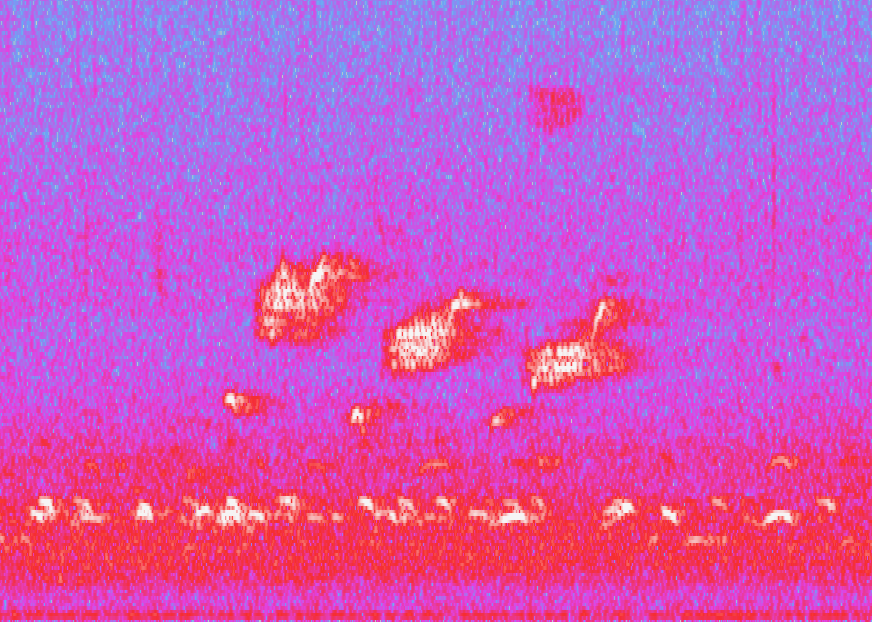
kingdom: Animalia
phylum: Chordata
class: Aves
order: Passeriformes
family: Fringillidae
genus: Loxia
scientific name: Loxia curvirostra
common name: Red crossbill
